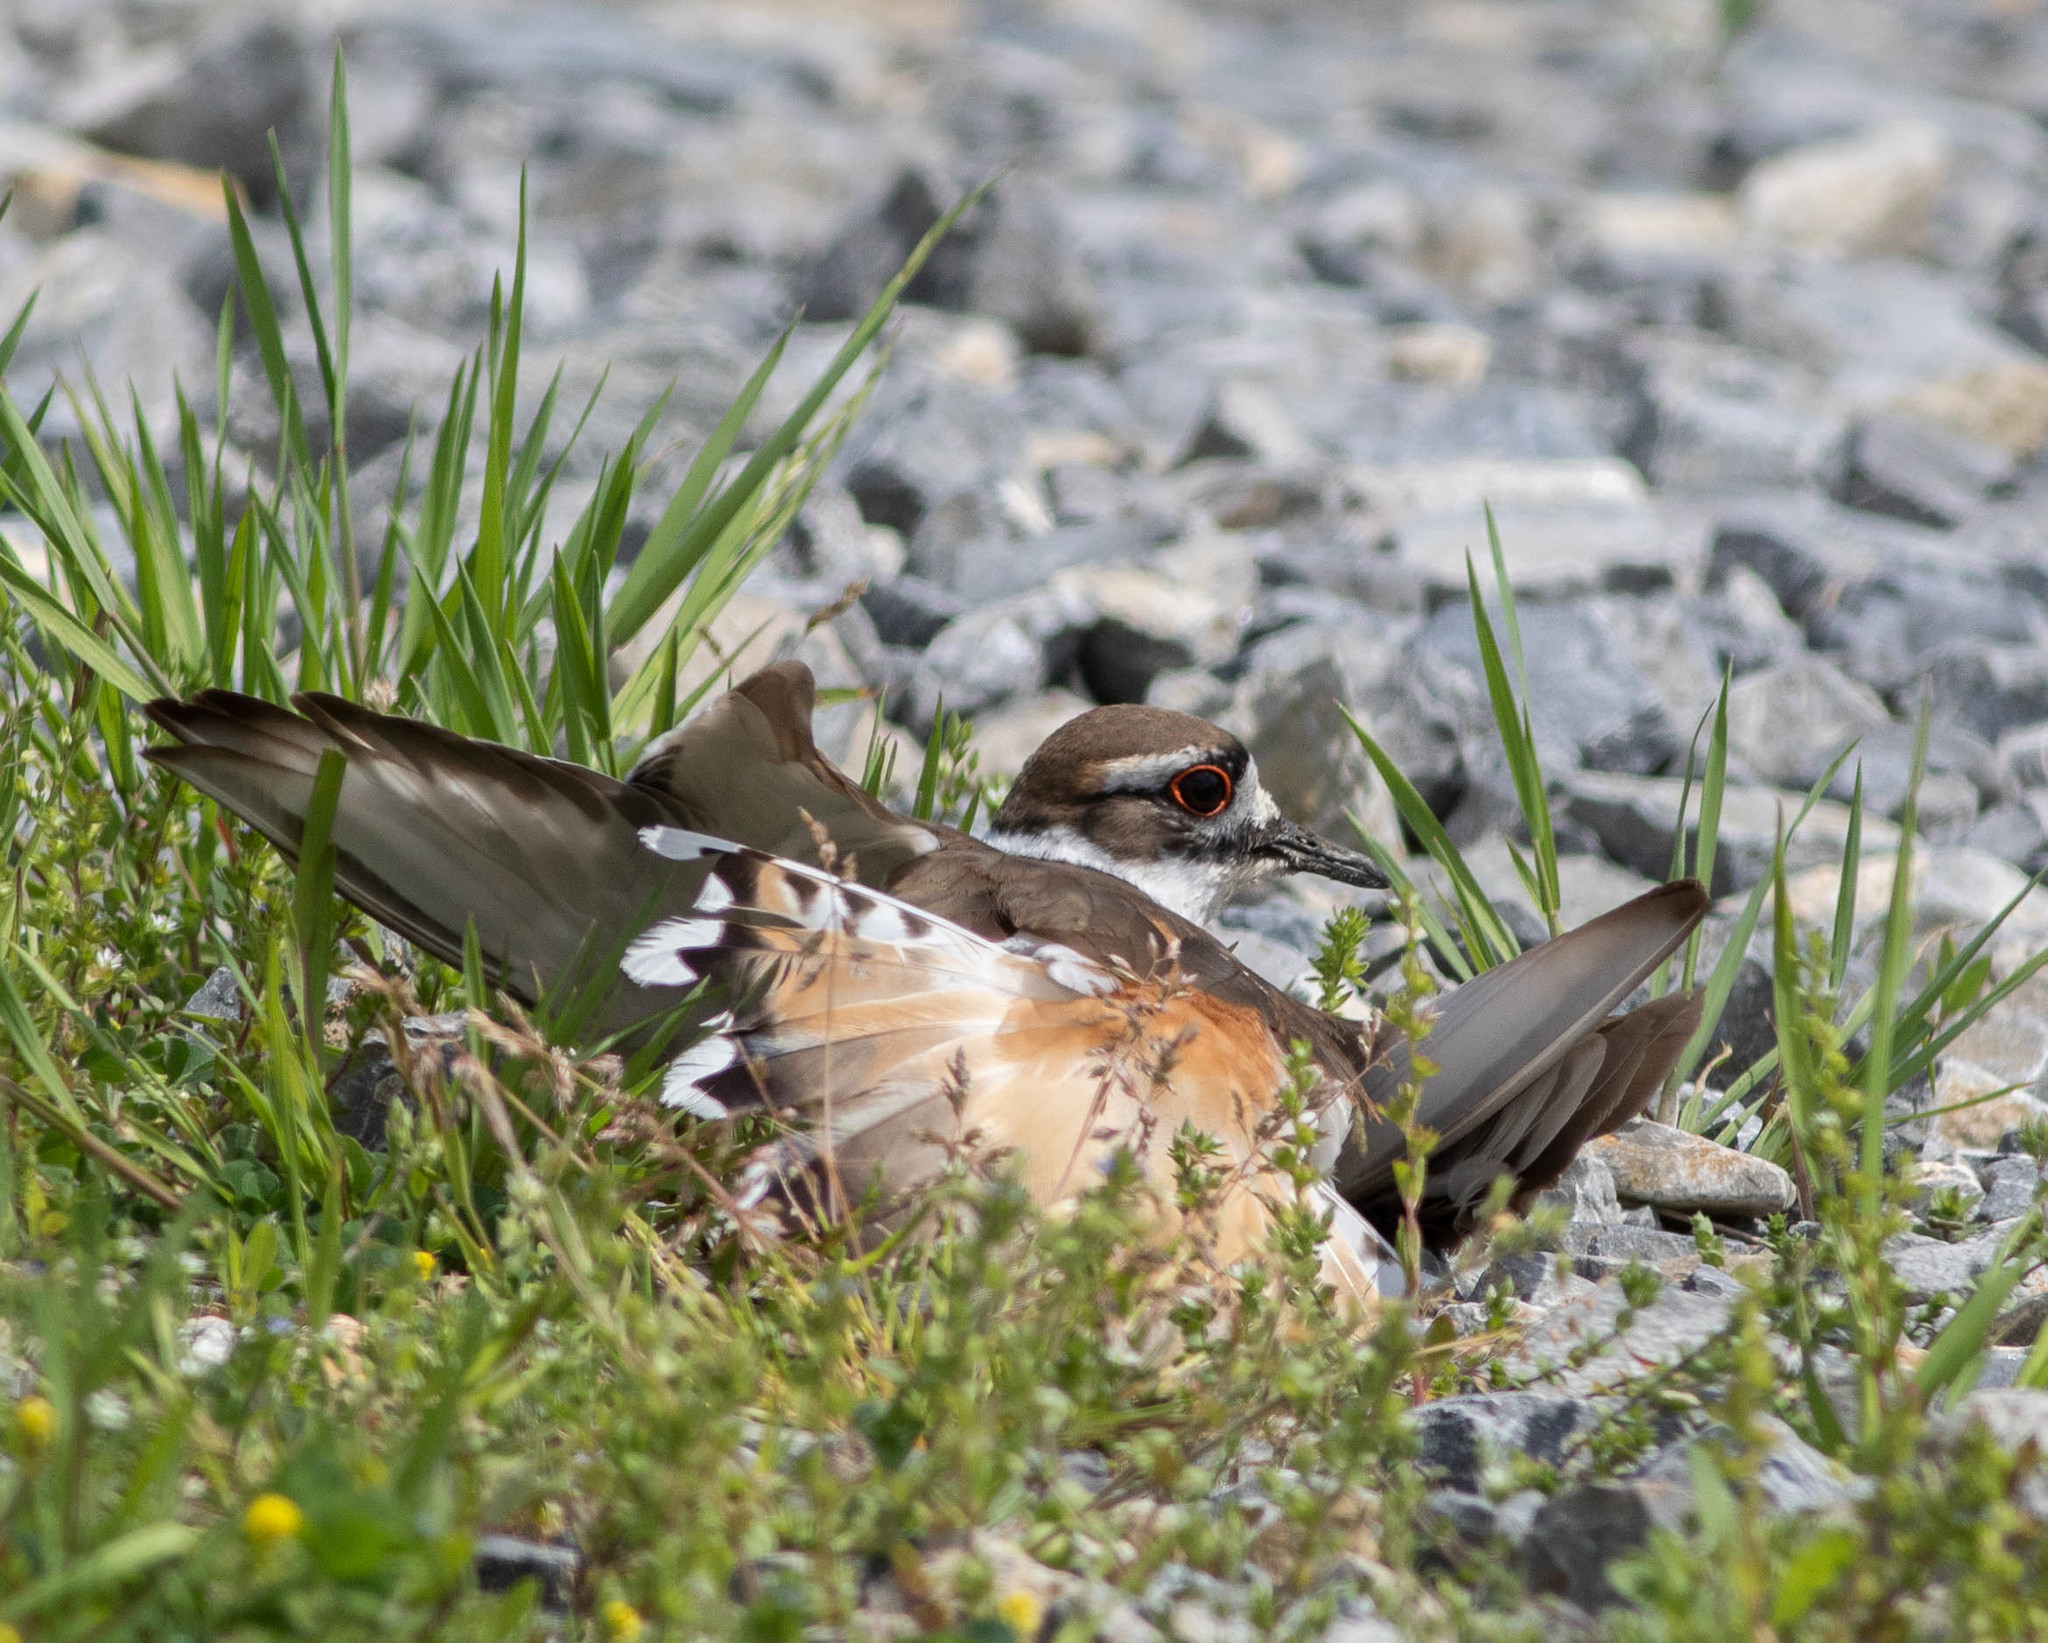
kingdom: Animalia
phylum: Chordata
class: Aves
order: Charadriiformes
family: Charadriidae
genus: Charadrius
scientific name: Charadrius vociferus
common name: Killdeer
